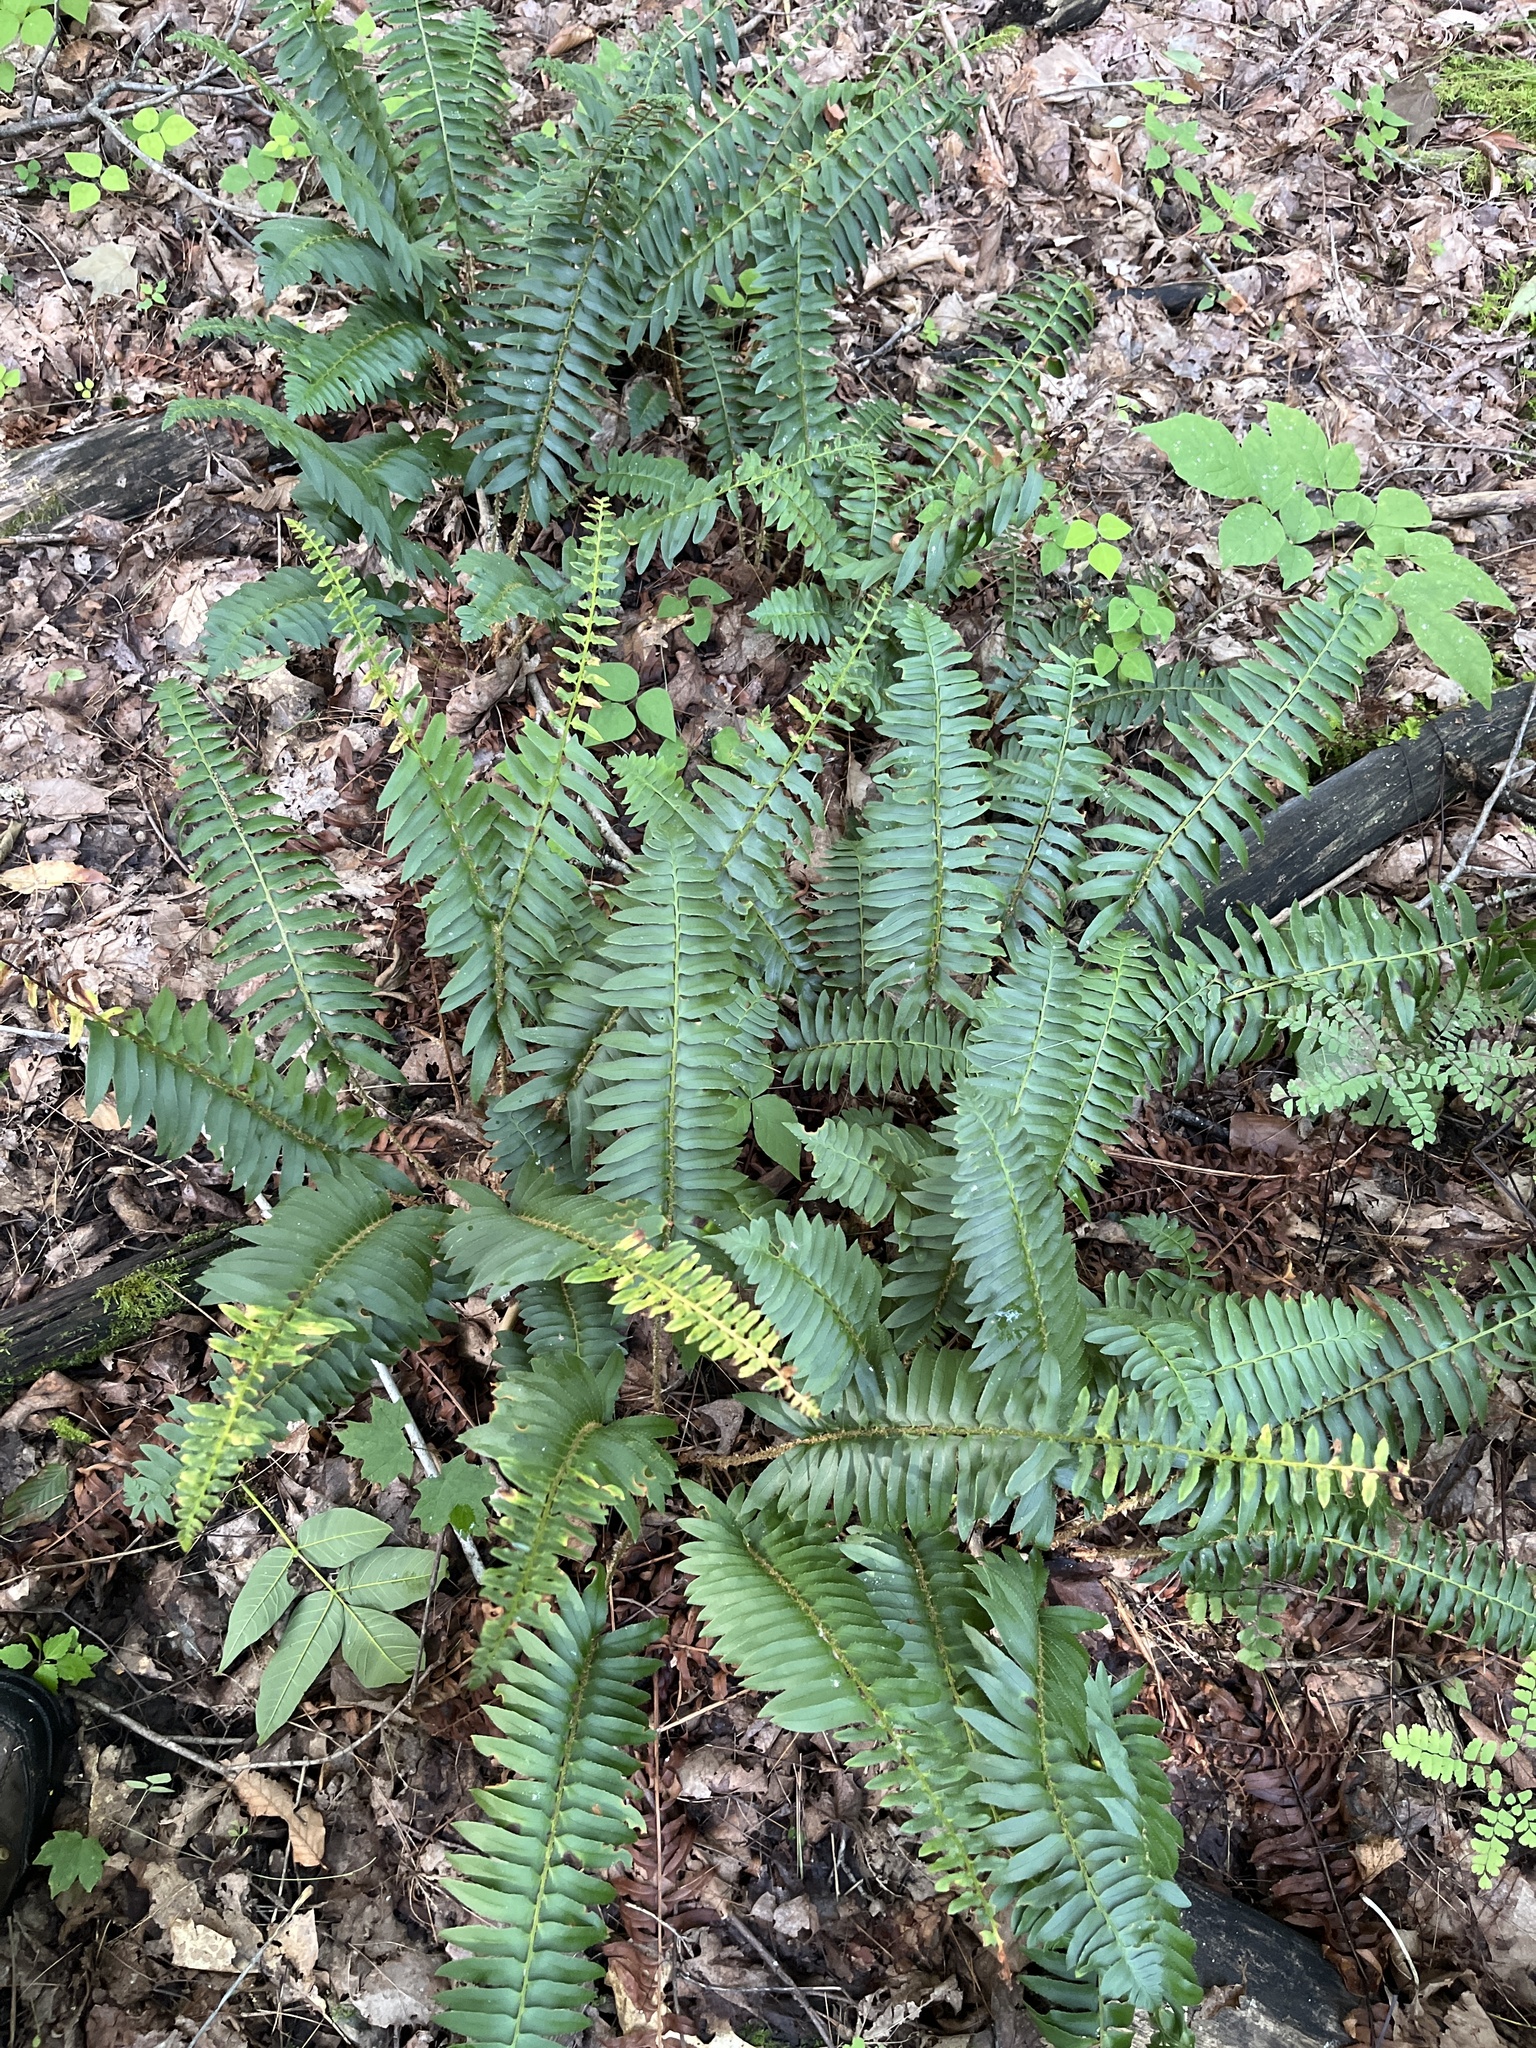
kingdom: Plantae
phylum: Tracheophyta
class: Polypodiopsida
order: Polypodiales
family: Dryopteridaceae
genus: Polystichum
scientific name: Polystichum acrostichoides
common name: Christmas fern
